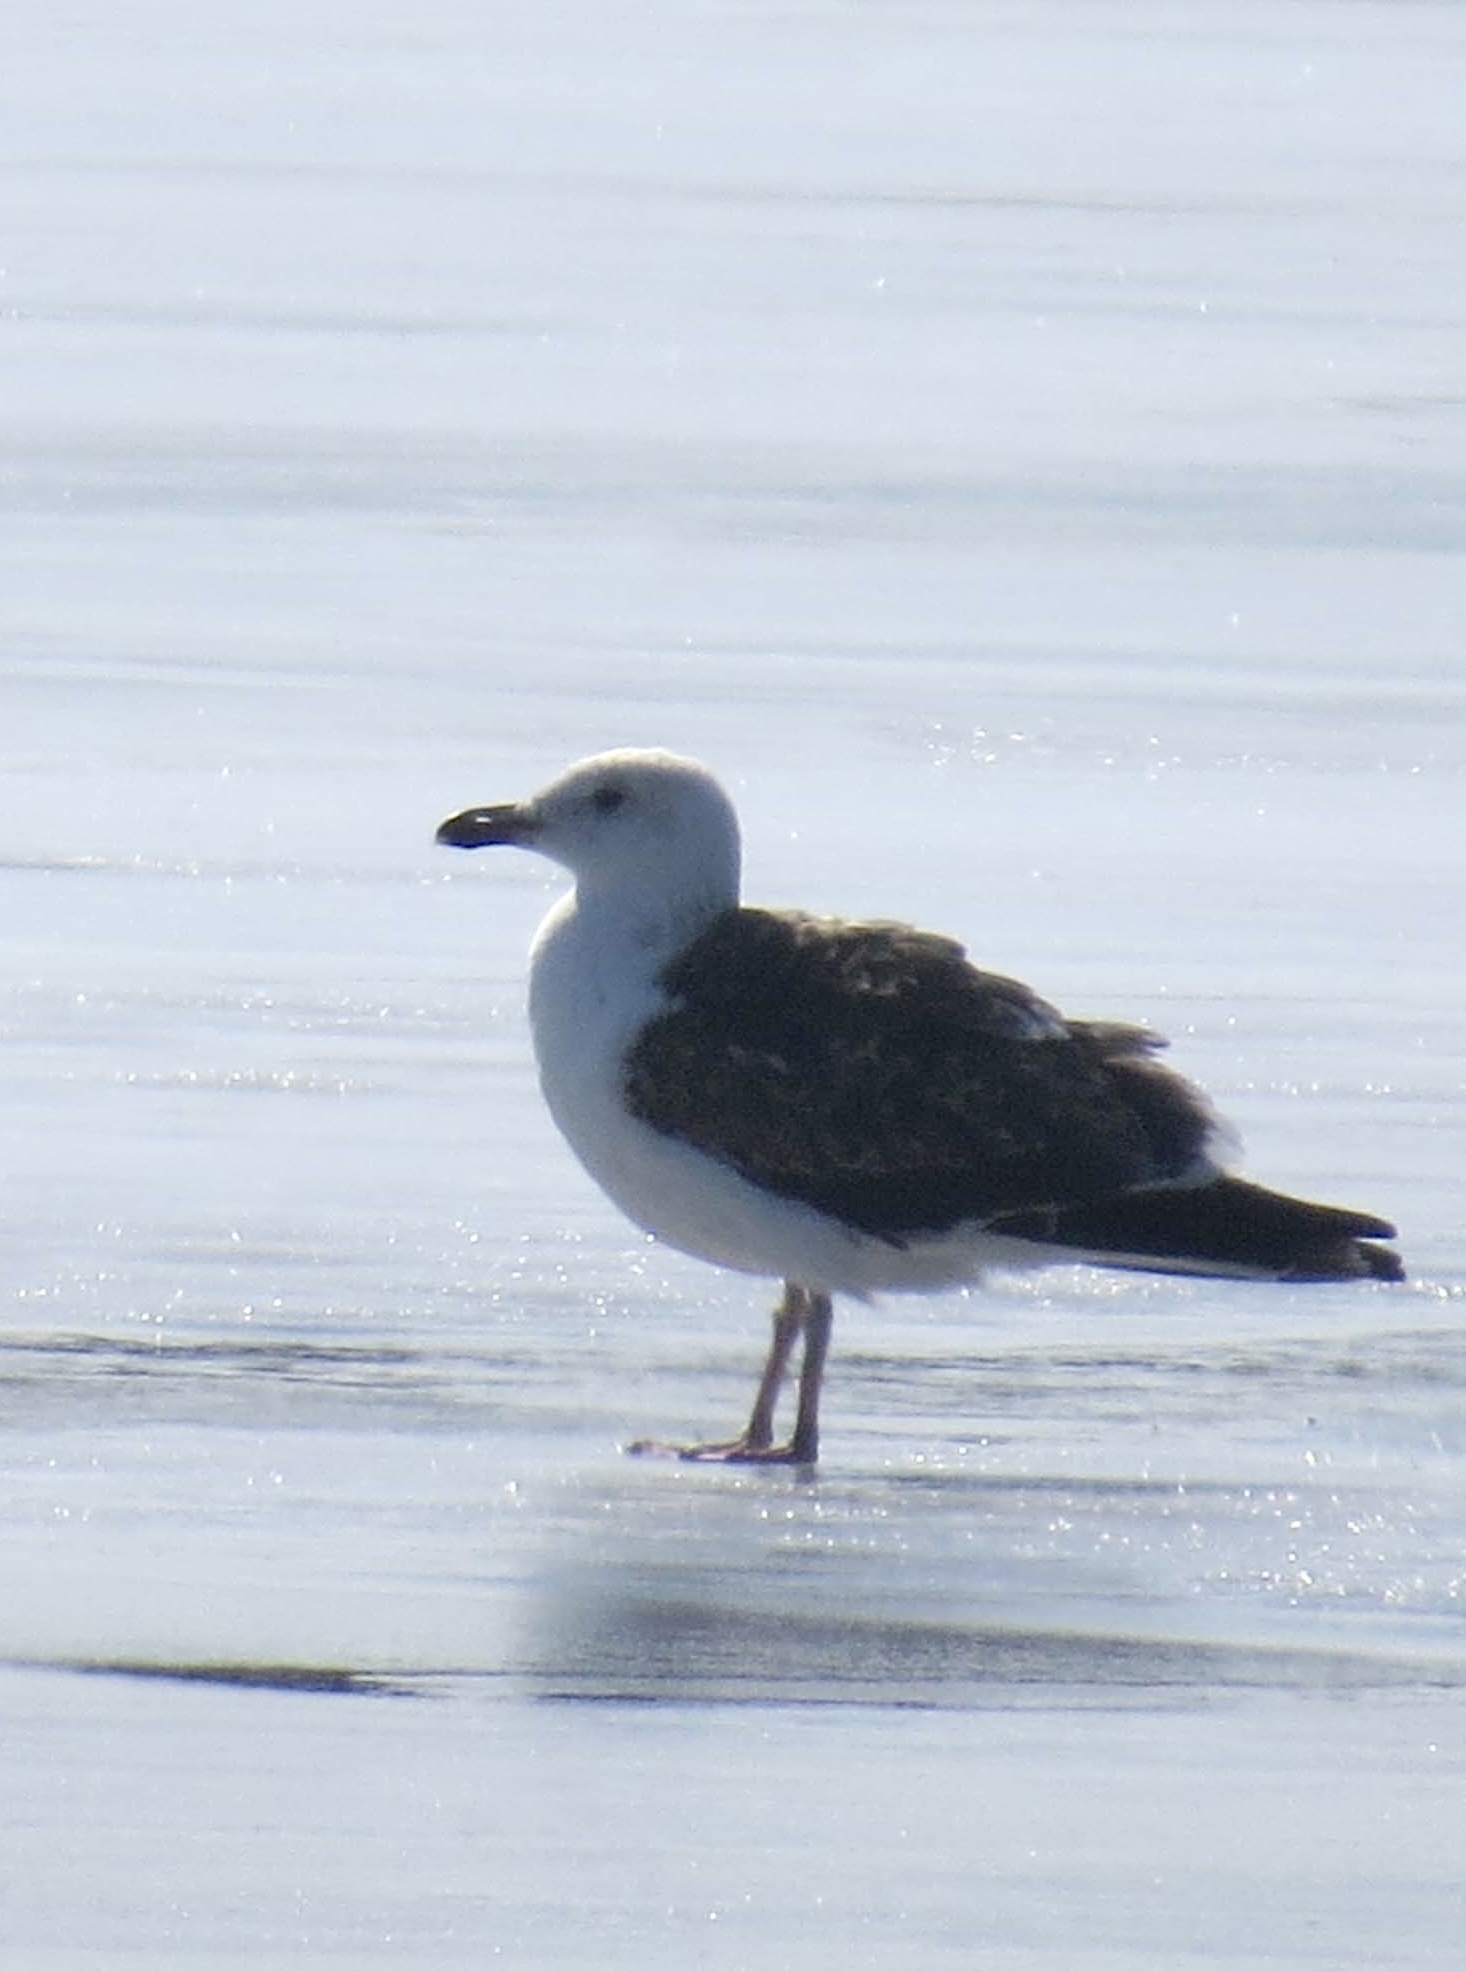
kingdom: Animalia
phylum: Chordata
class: Aves
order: Charadriiformes
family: Laridae
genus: Larus
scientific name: Larus marinus
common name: Great black-backed gull
